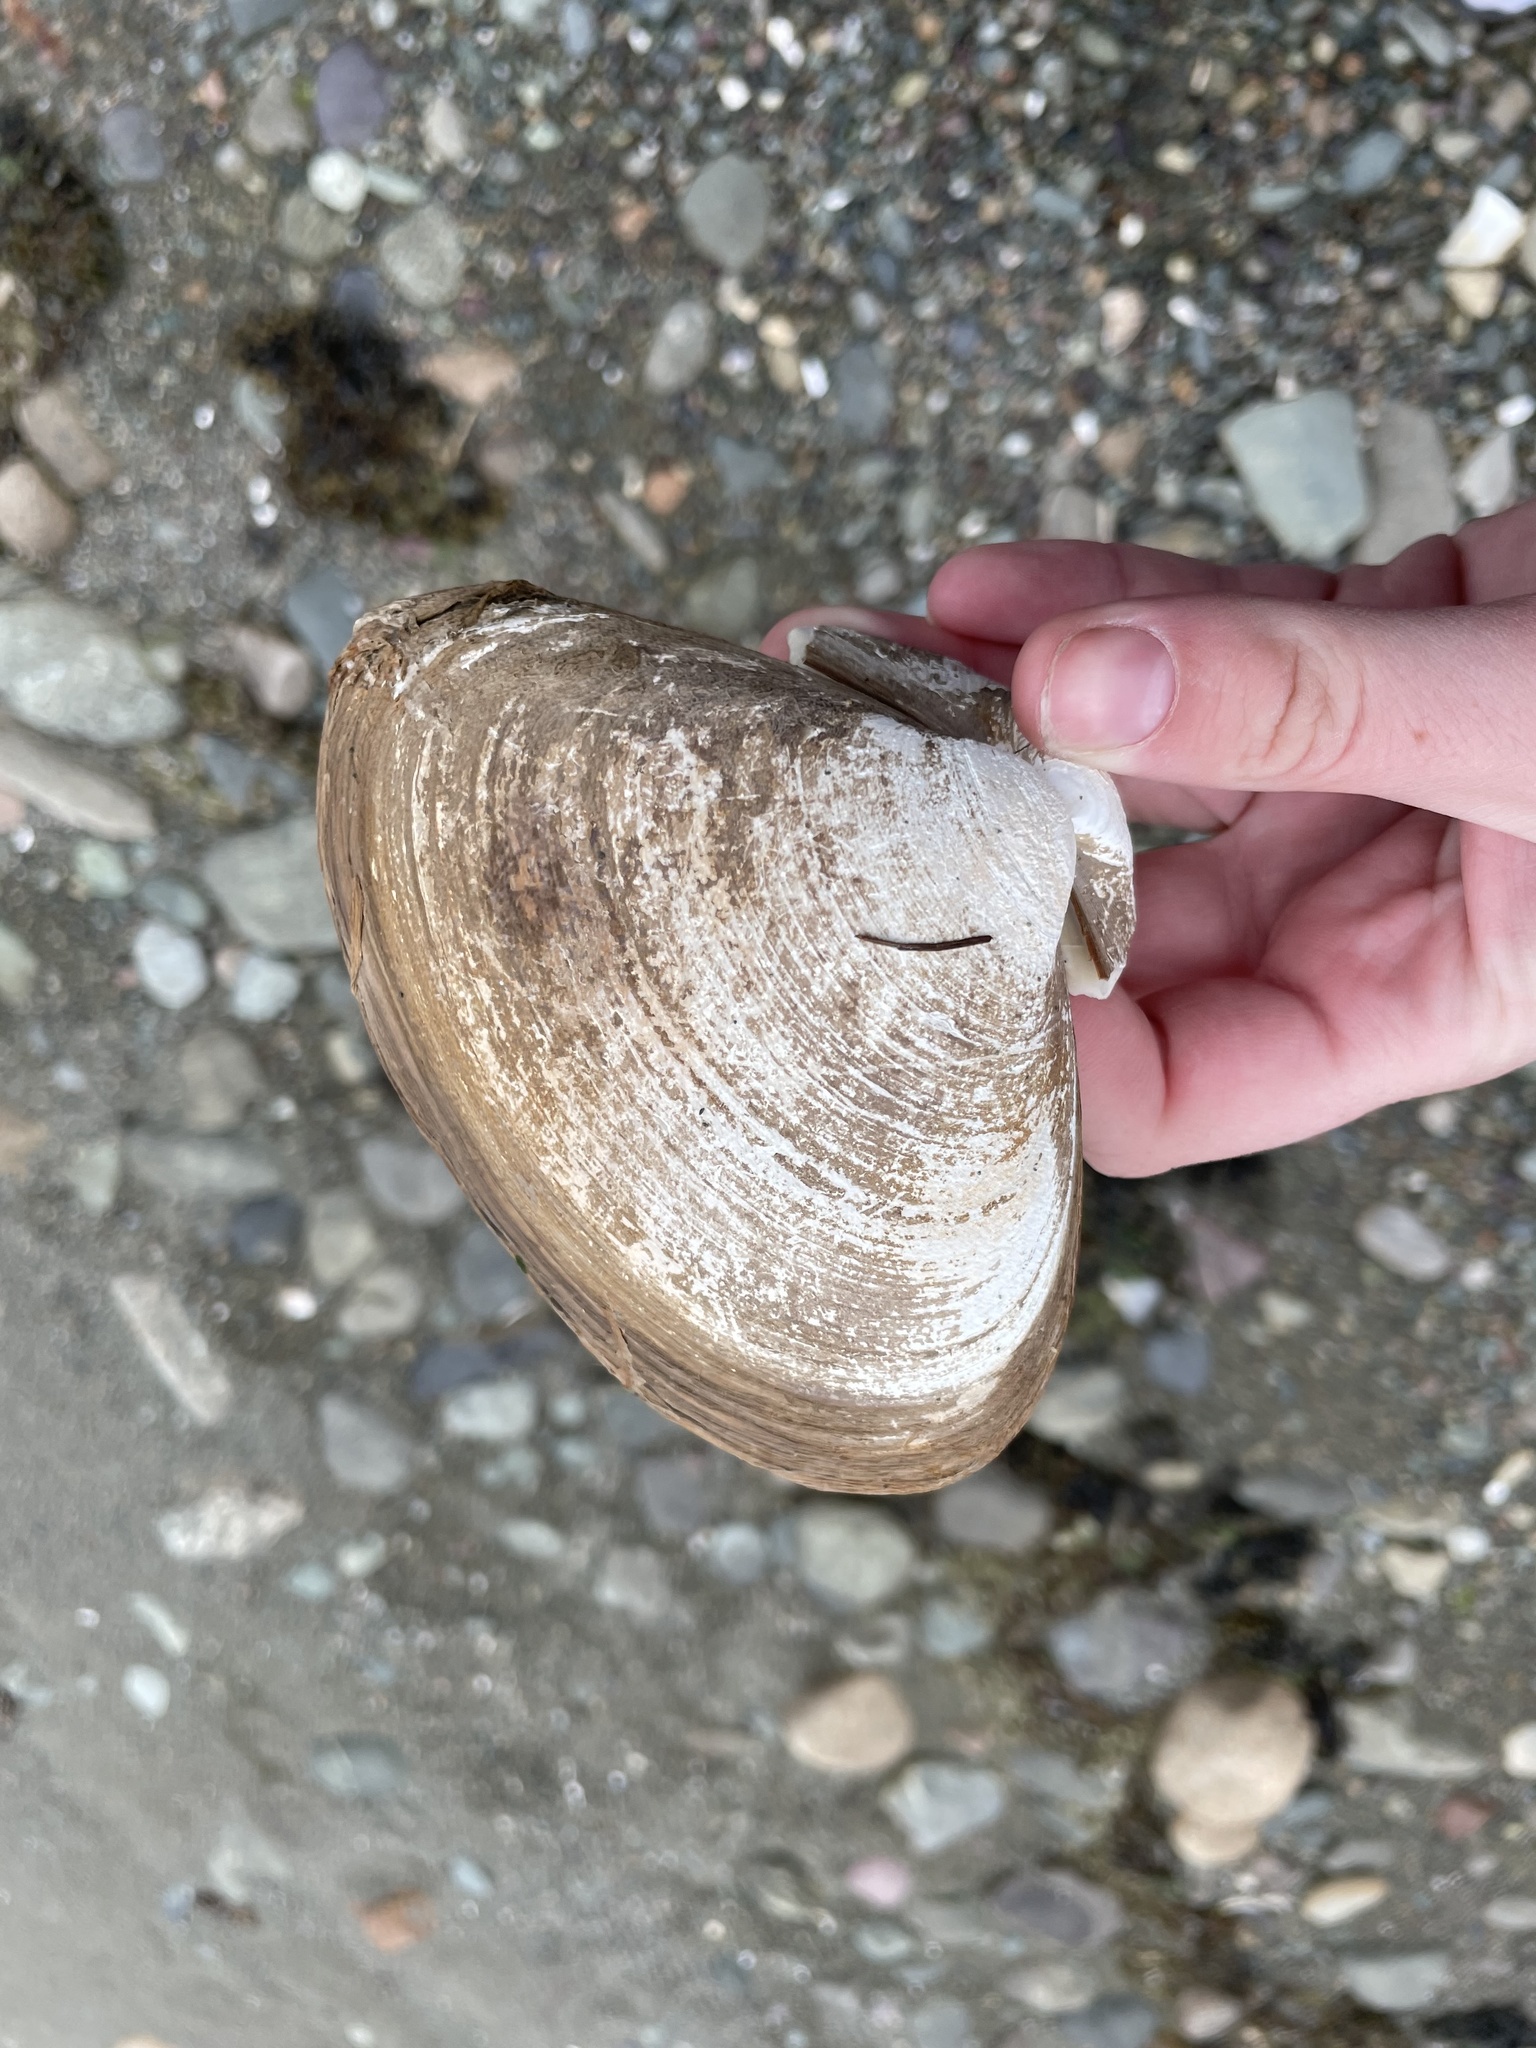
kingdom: Animalia
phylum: Mollusca
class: Bivalvia
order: Venerida
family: Mactridae
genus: Spisula
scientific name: Spisula solidissima
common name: Atlantic surf clam
